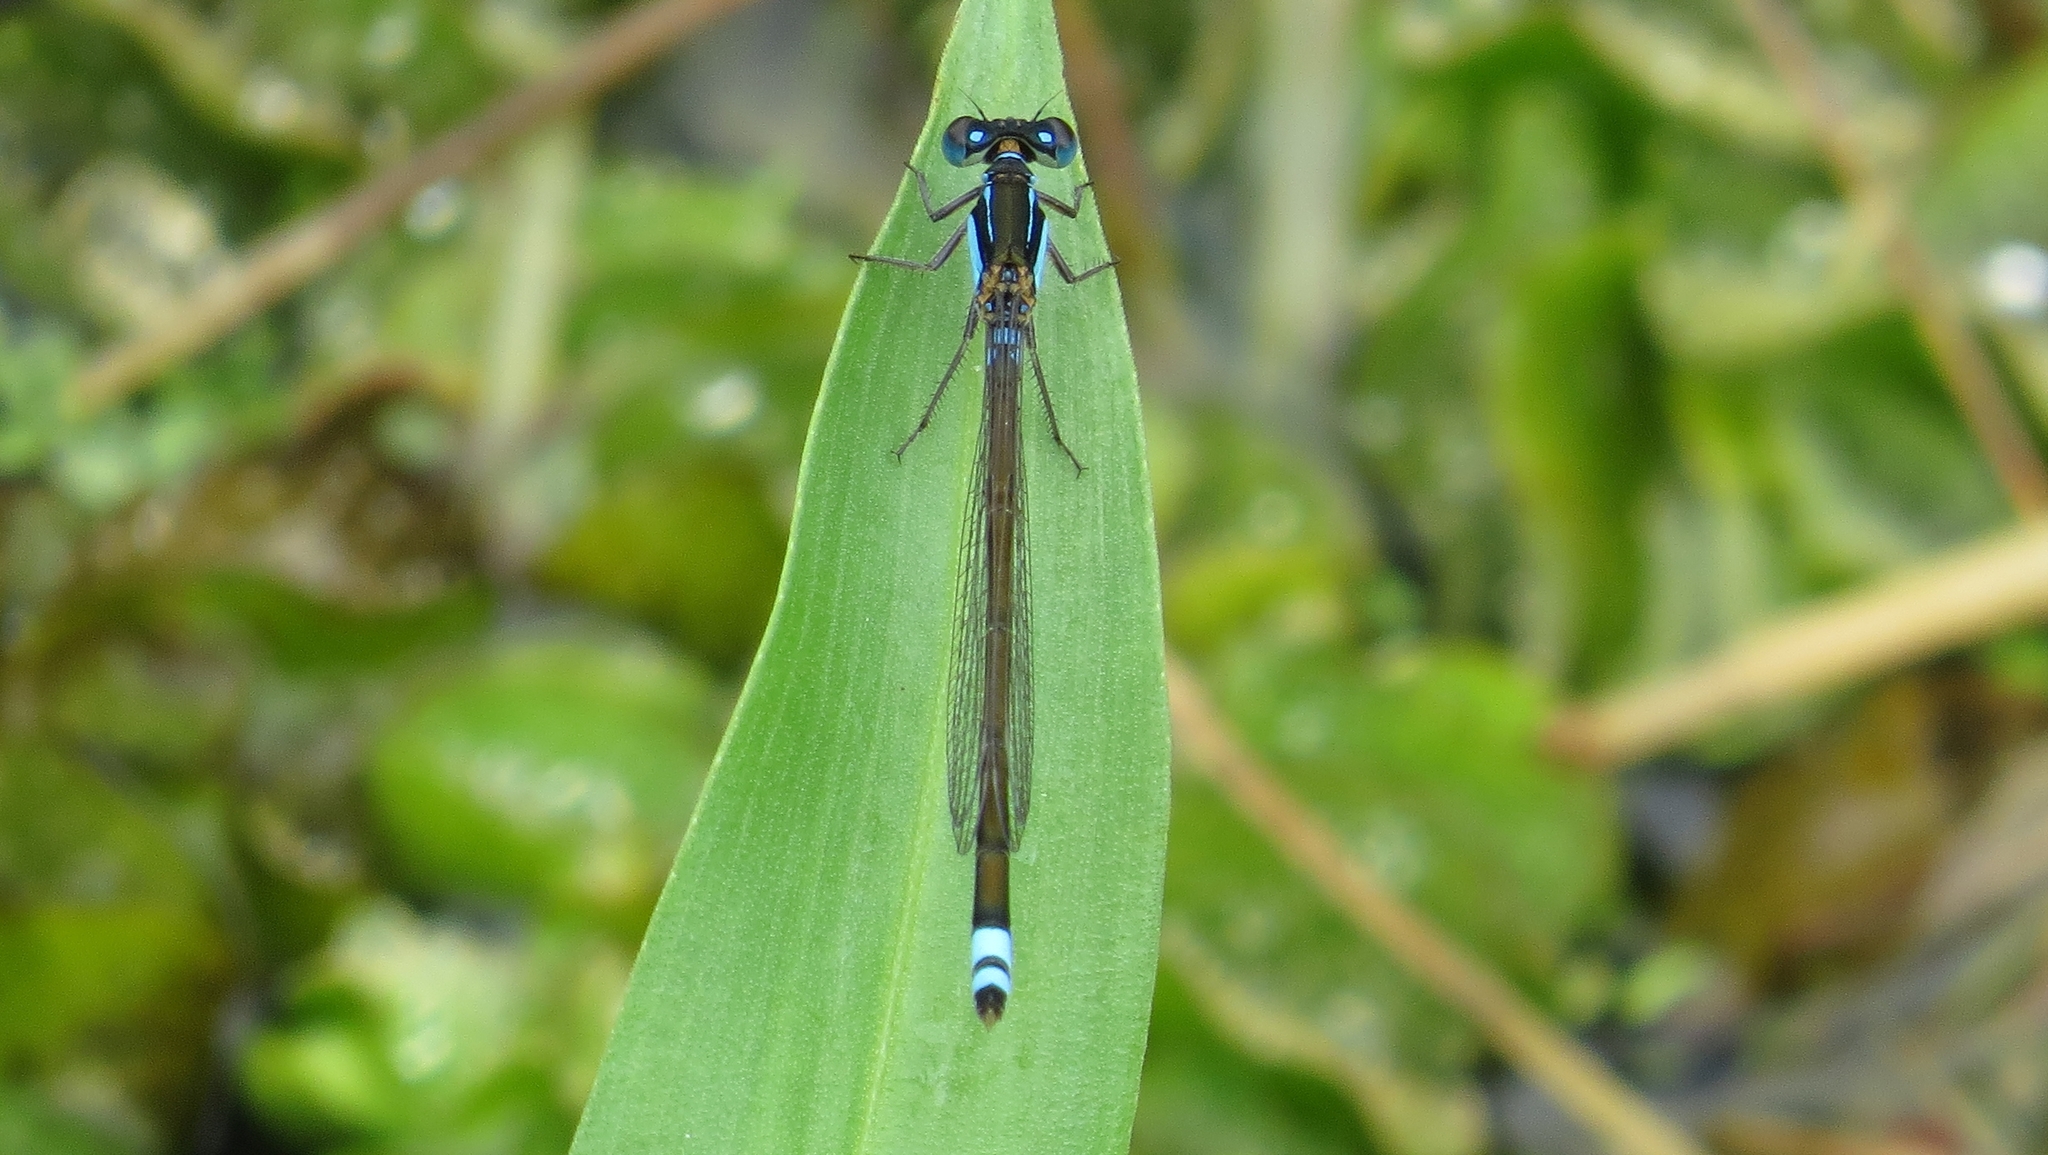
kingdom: Animalia
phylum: Arthropoda
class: Insecta
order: Odonata
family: Coenagrionidae
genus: Ischnura
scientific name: Ischnura heterosticta
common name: Common bluetail
